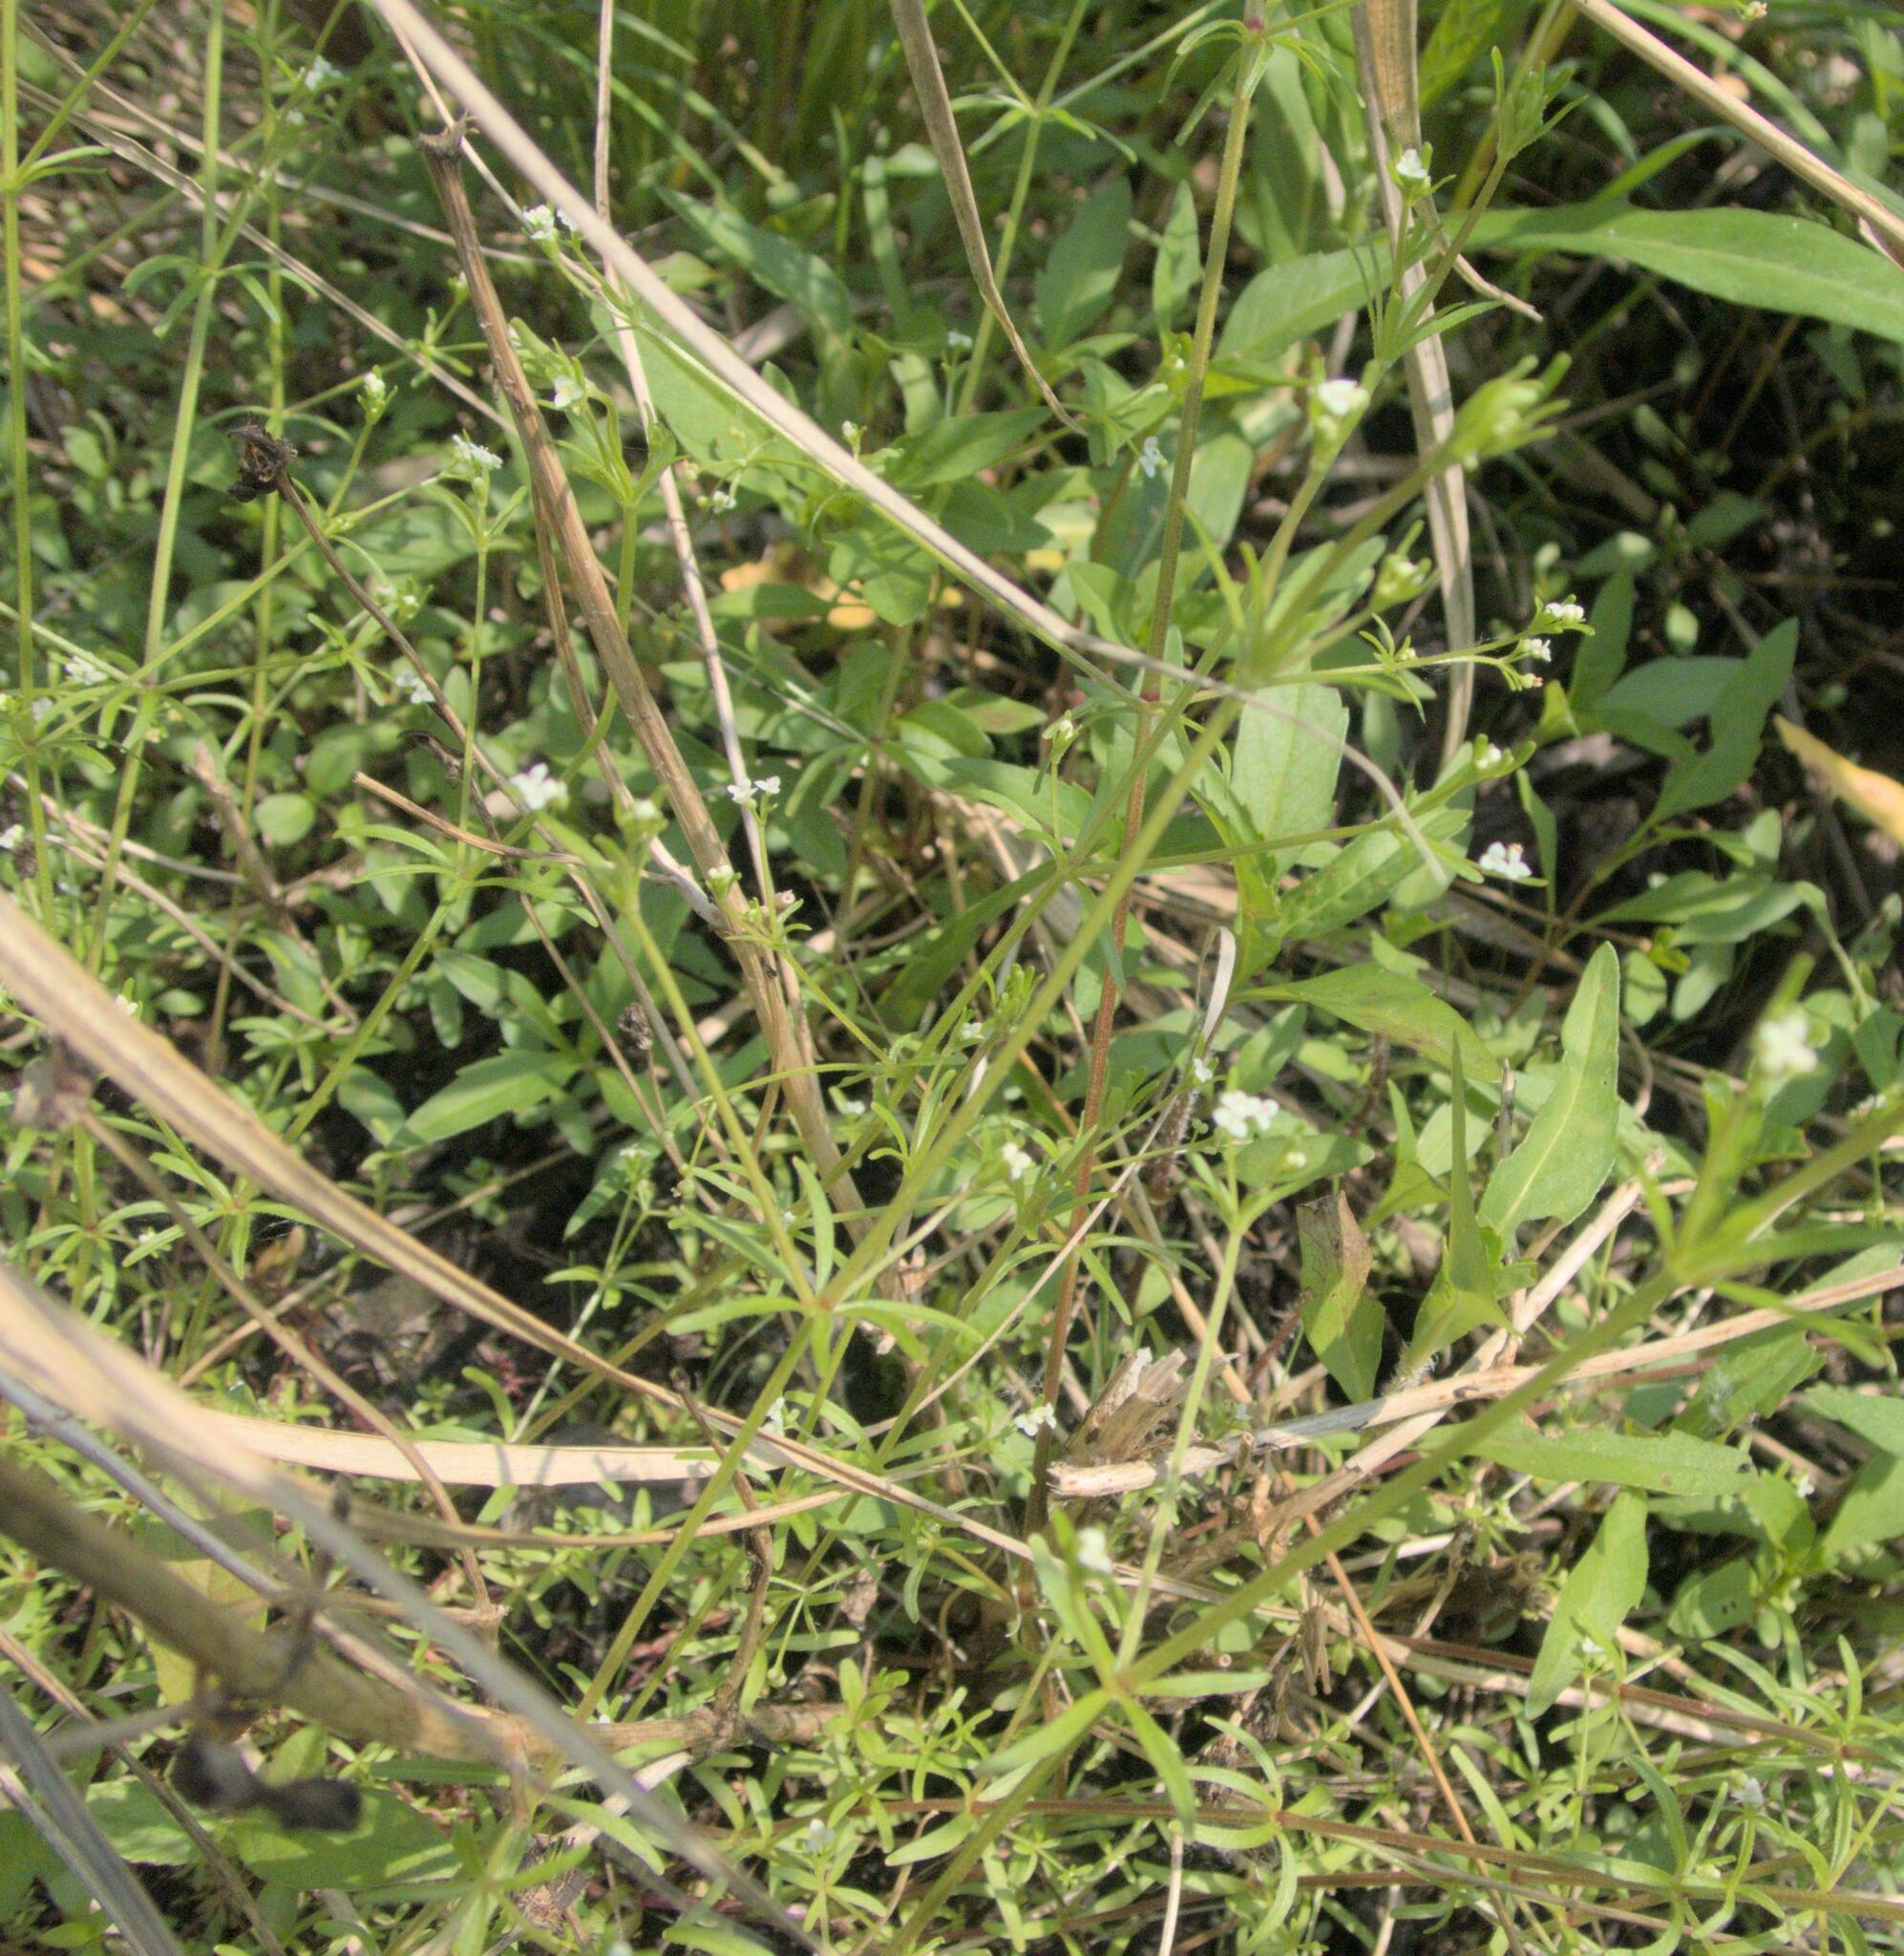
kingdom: Plantae
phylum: Tracheophyta
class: Magnoliopsida
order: Gentianales
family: Rubiaceae
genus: Galium
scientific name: Galium trifidum
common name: Small bedstraw
